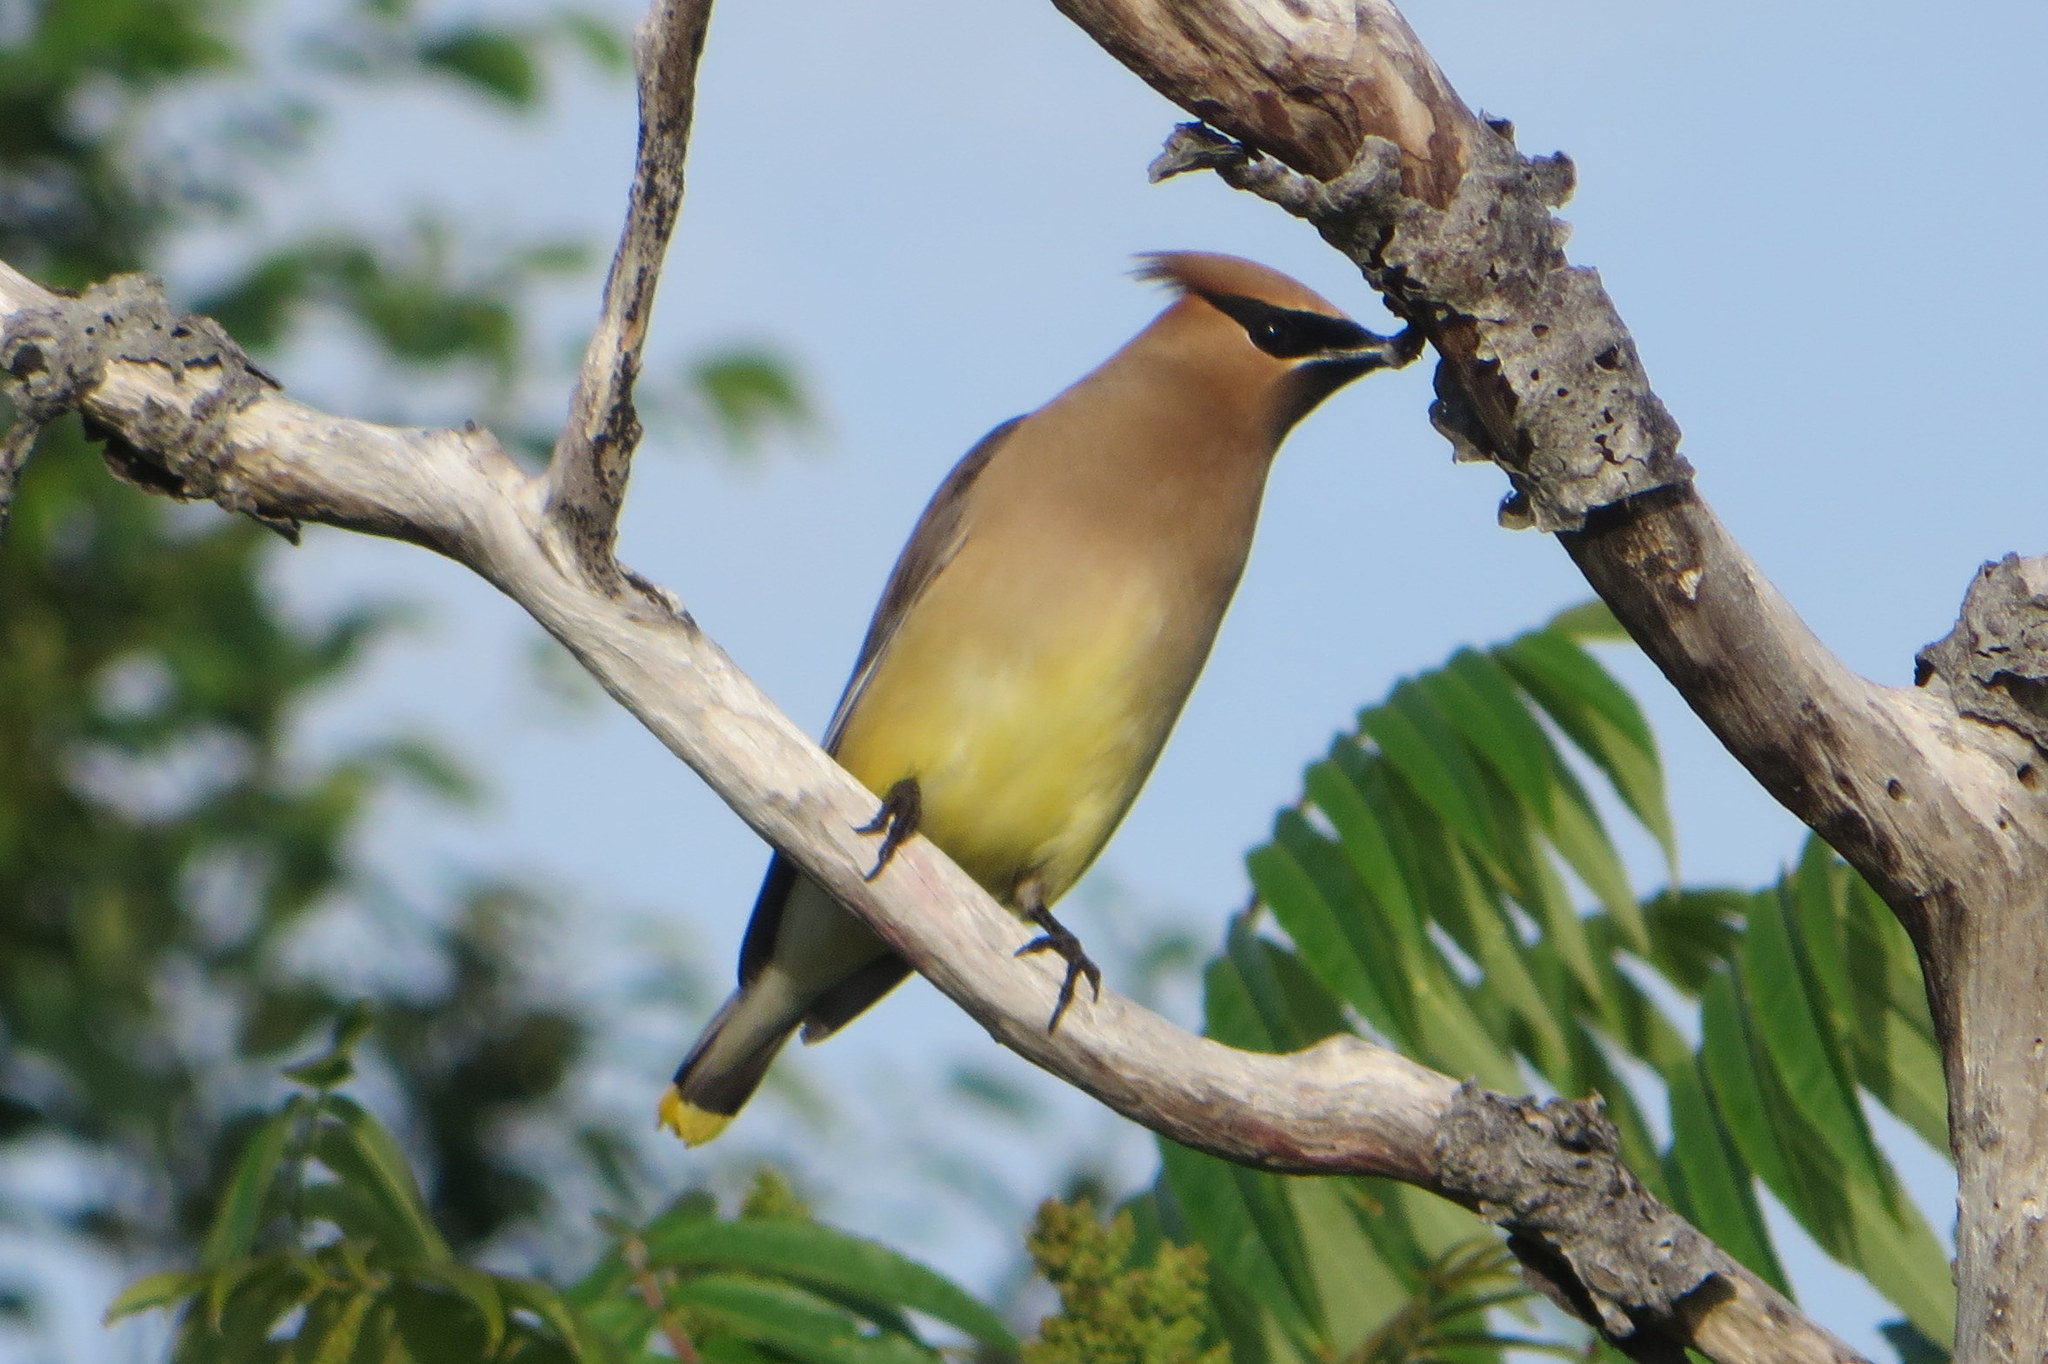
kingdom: Animalia
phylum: Chordata
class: Aves
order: Passeriformes
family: Bombycillidae
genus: Bombycilla
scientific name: Bombycilla cedrorum
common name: Cedar waxwing
